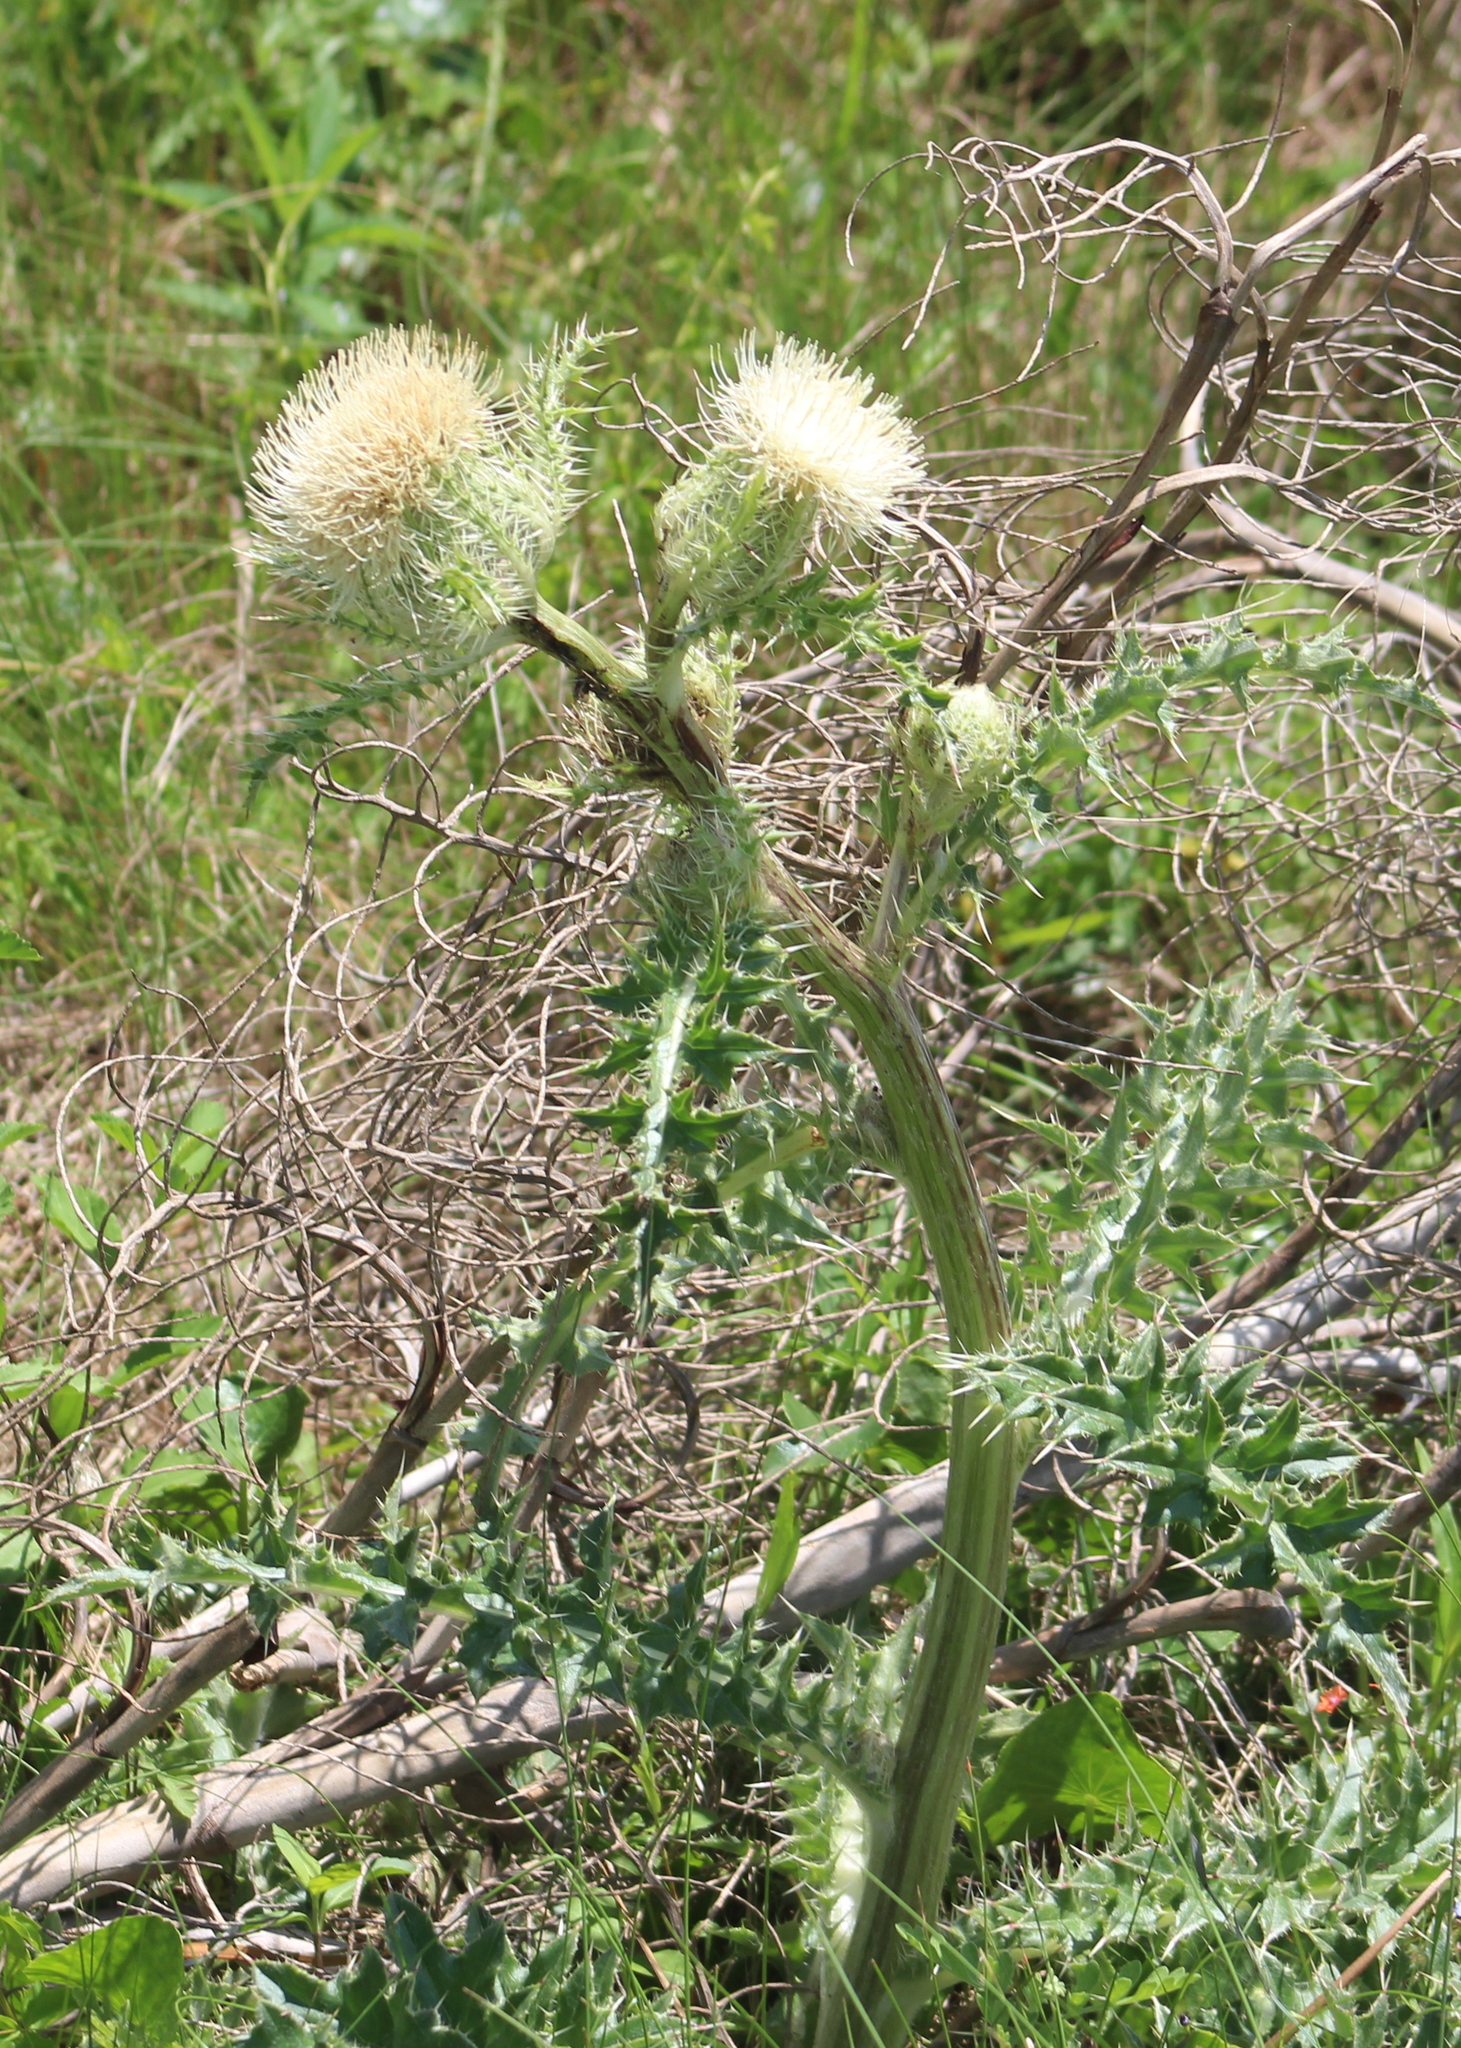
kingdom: Plantae
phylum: Tracheophyta
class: Magnoliopsida
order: Asterales
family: Asteraceae
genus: Cirsium
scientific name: Cirsium horridulum
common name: Bristly thistle
